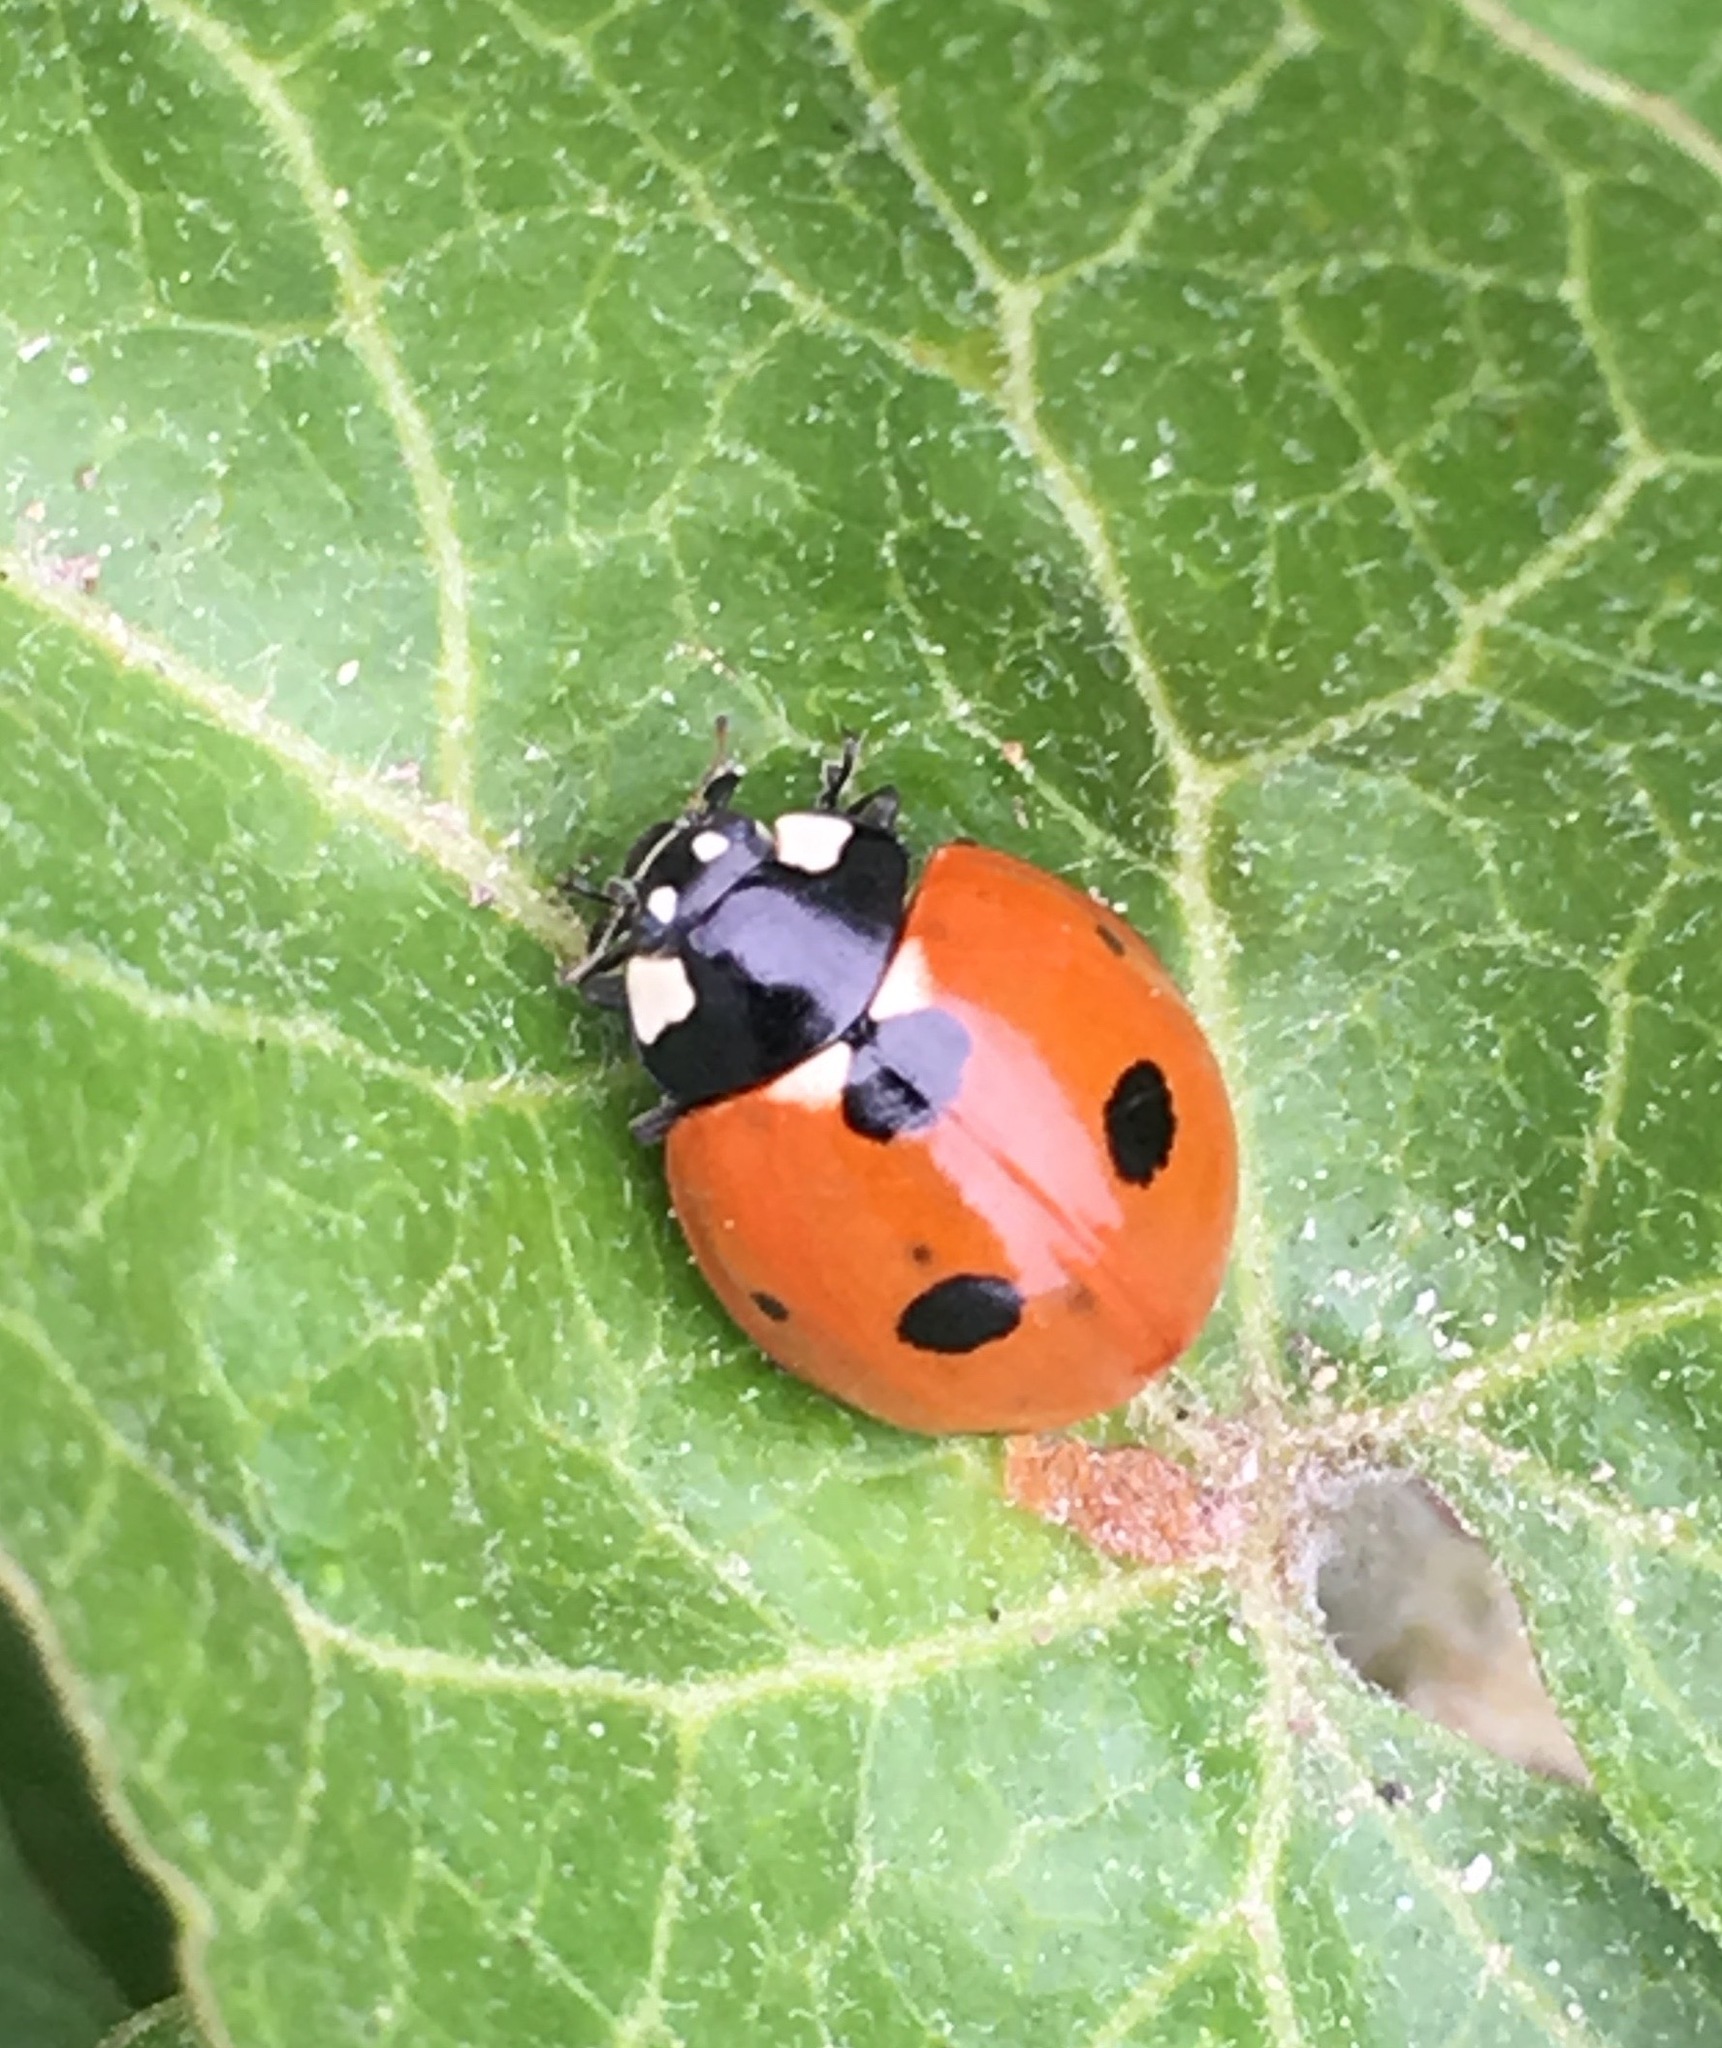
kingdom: Animalia
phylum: Arthropoda
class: Insecta
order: Coleoptera
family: Coccinellidae
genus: Coccinella
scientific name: Coccinella septempunctata
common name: Sevenspotted lady beetle
